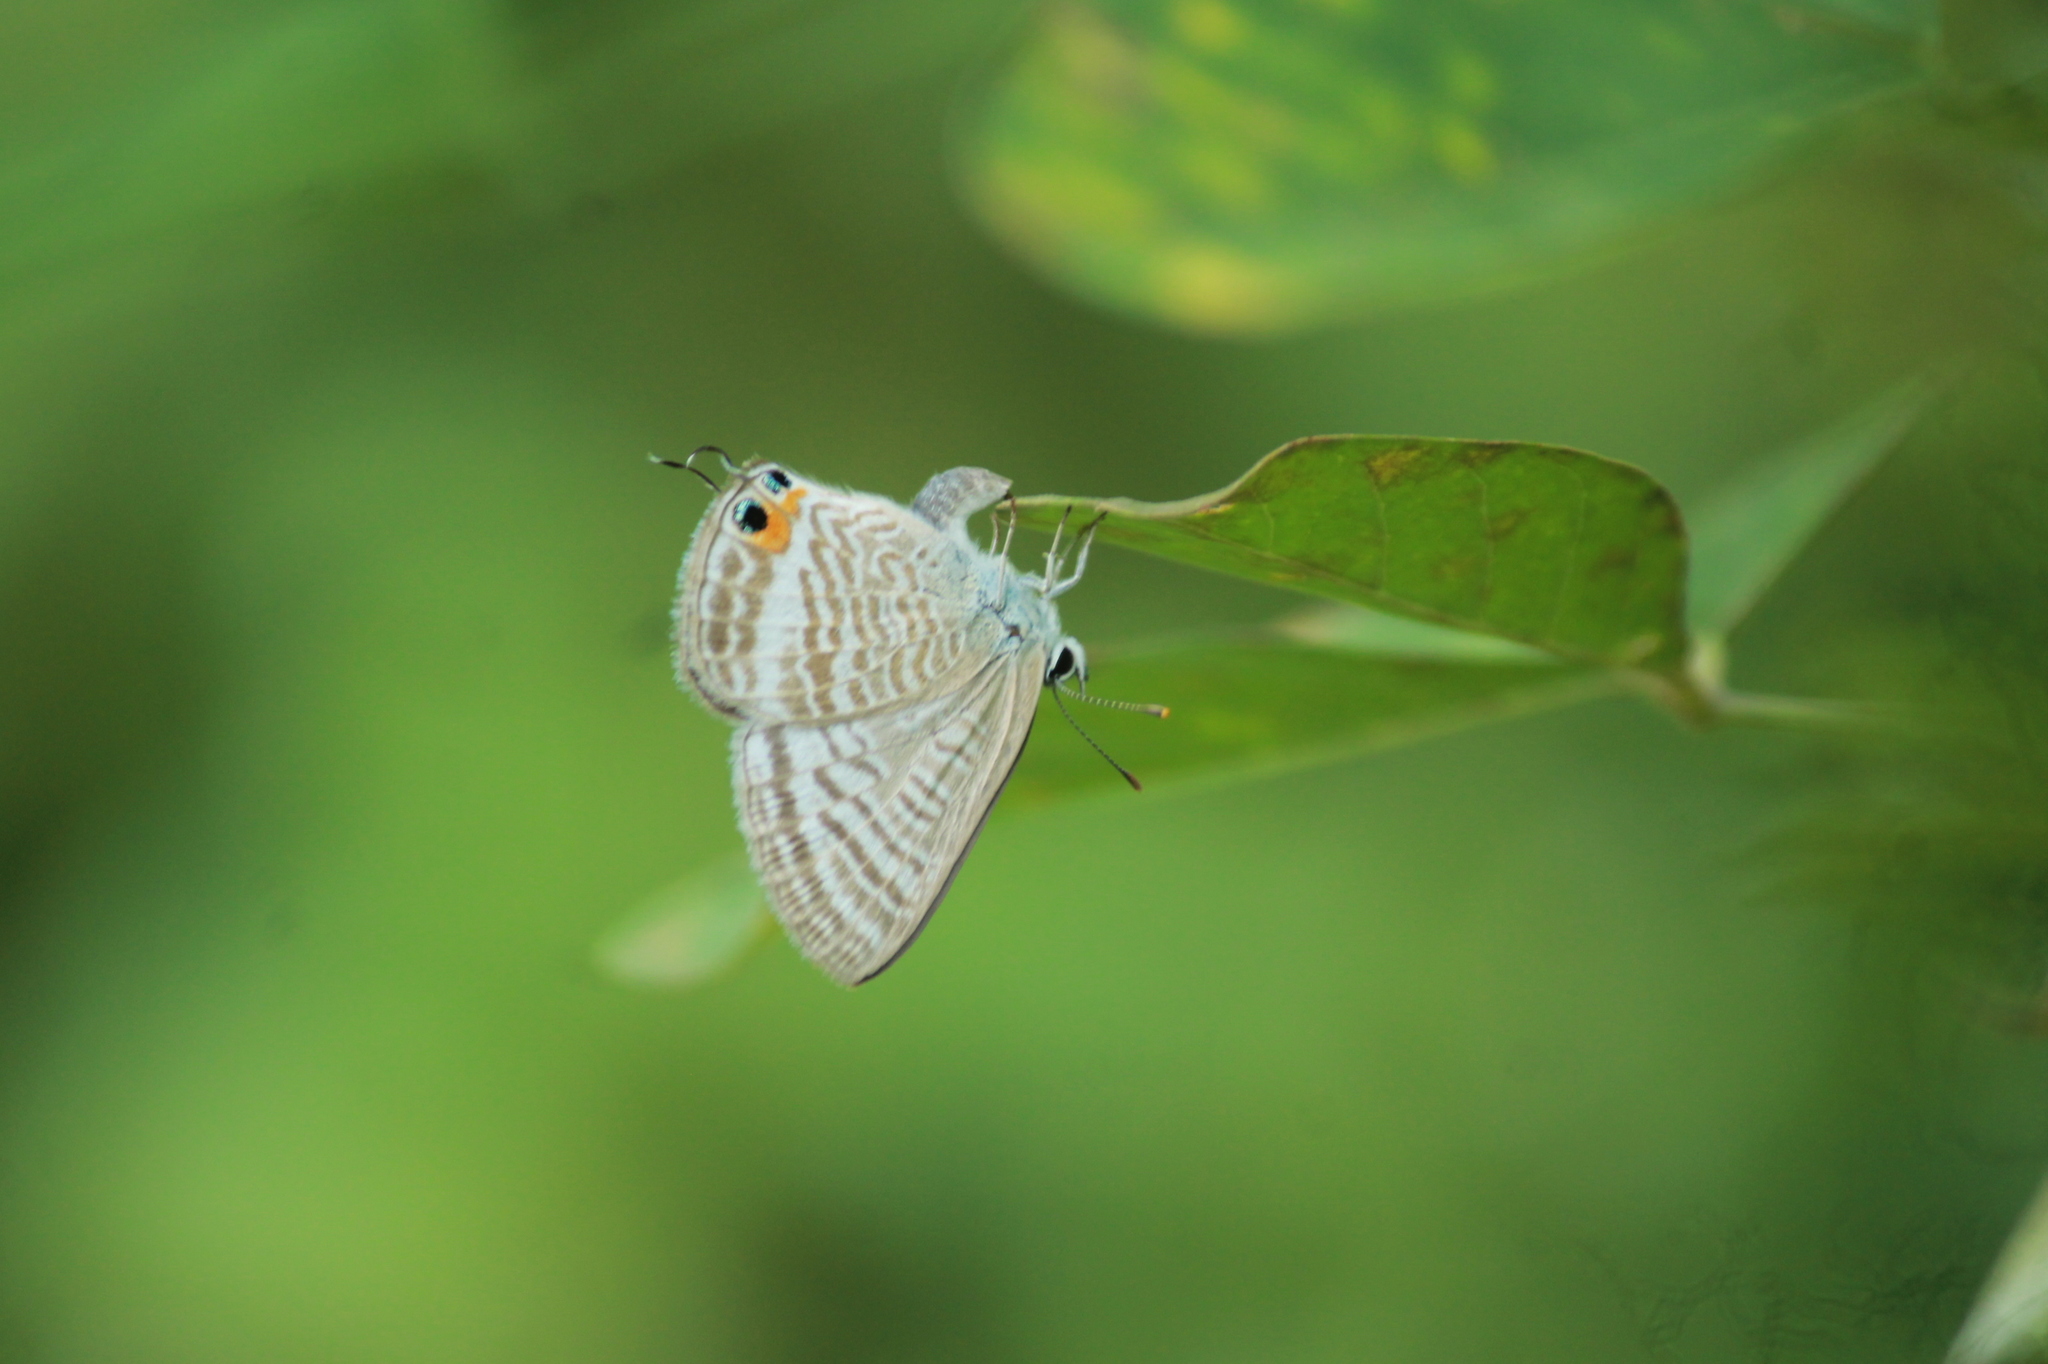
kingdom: Animalia
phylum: Arthropoda
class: Insecta
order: Lepidoptera
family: Lycaenidae
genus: Lampides
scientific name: Lampides boeticus
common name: Long-tailed blue
